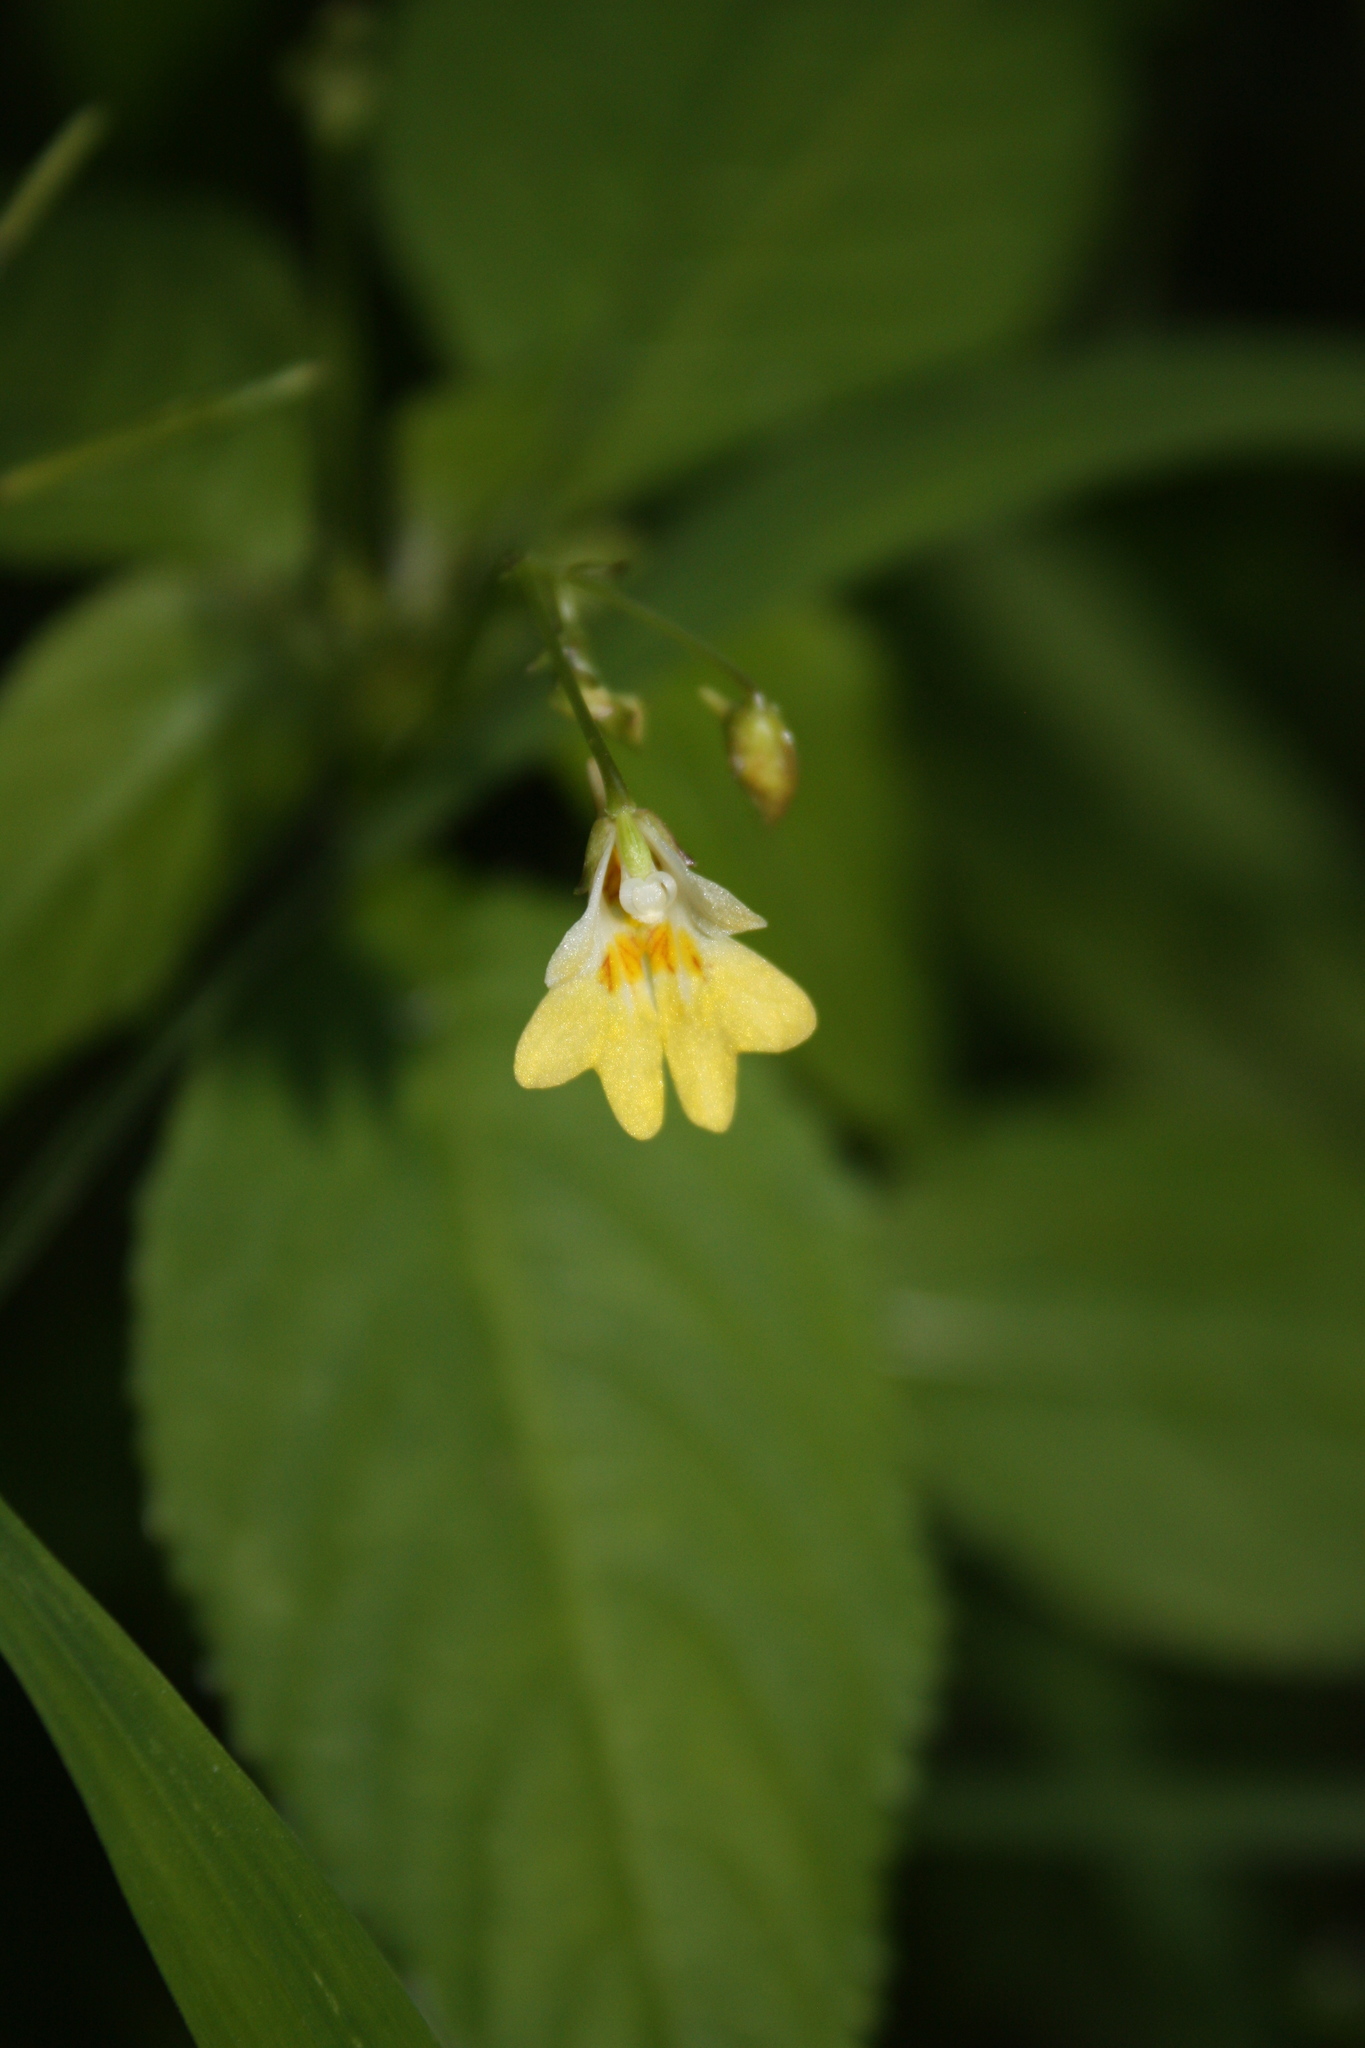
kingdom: Plantae
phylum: Tracheophyta
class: Magnoliopsida
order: Ericales
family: Balsaminaceae
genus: Impatiens
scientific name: Impatiens parviflora
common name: Small balsam
